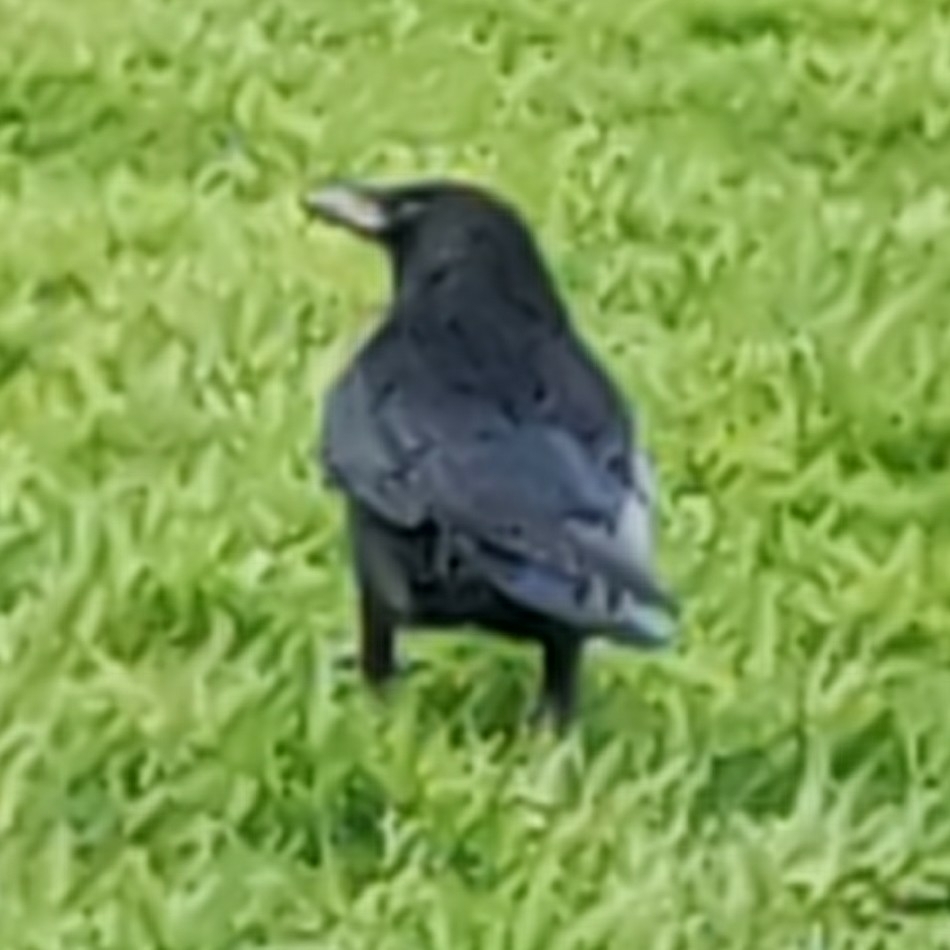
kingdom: Animalia
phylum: Chordata
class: Aves
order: Passeriformes
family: Corvidae
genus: Corvus
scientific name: Corvus corone
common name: Carrion crow
